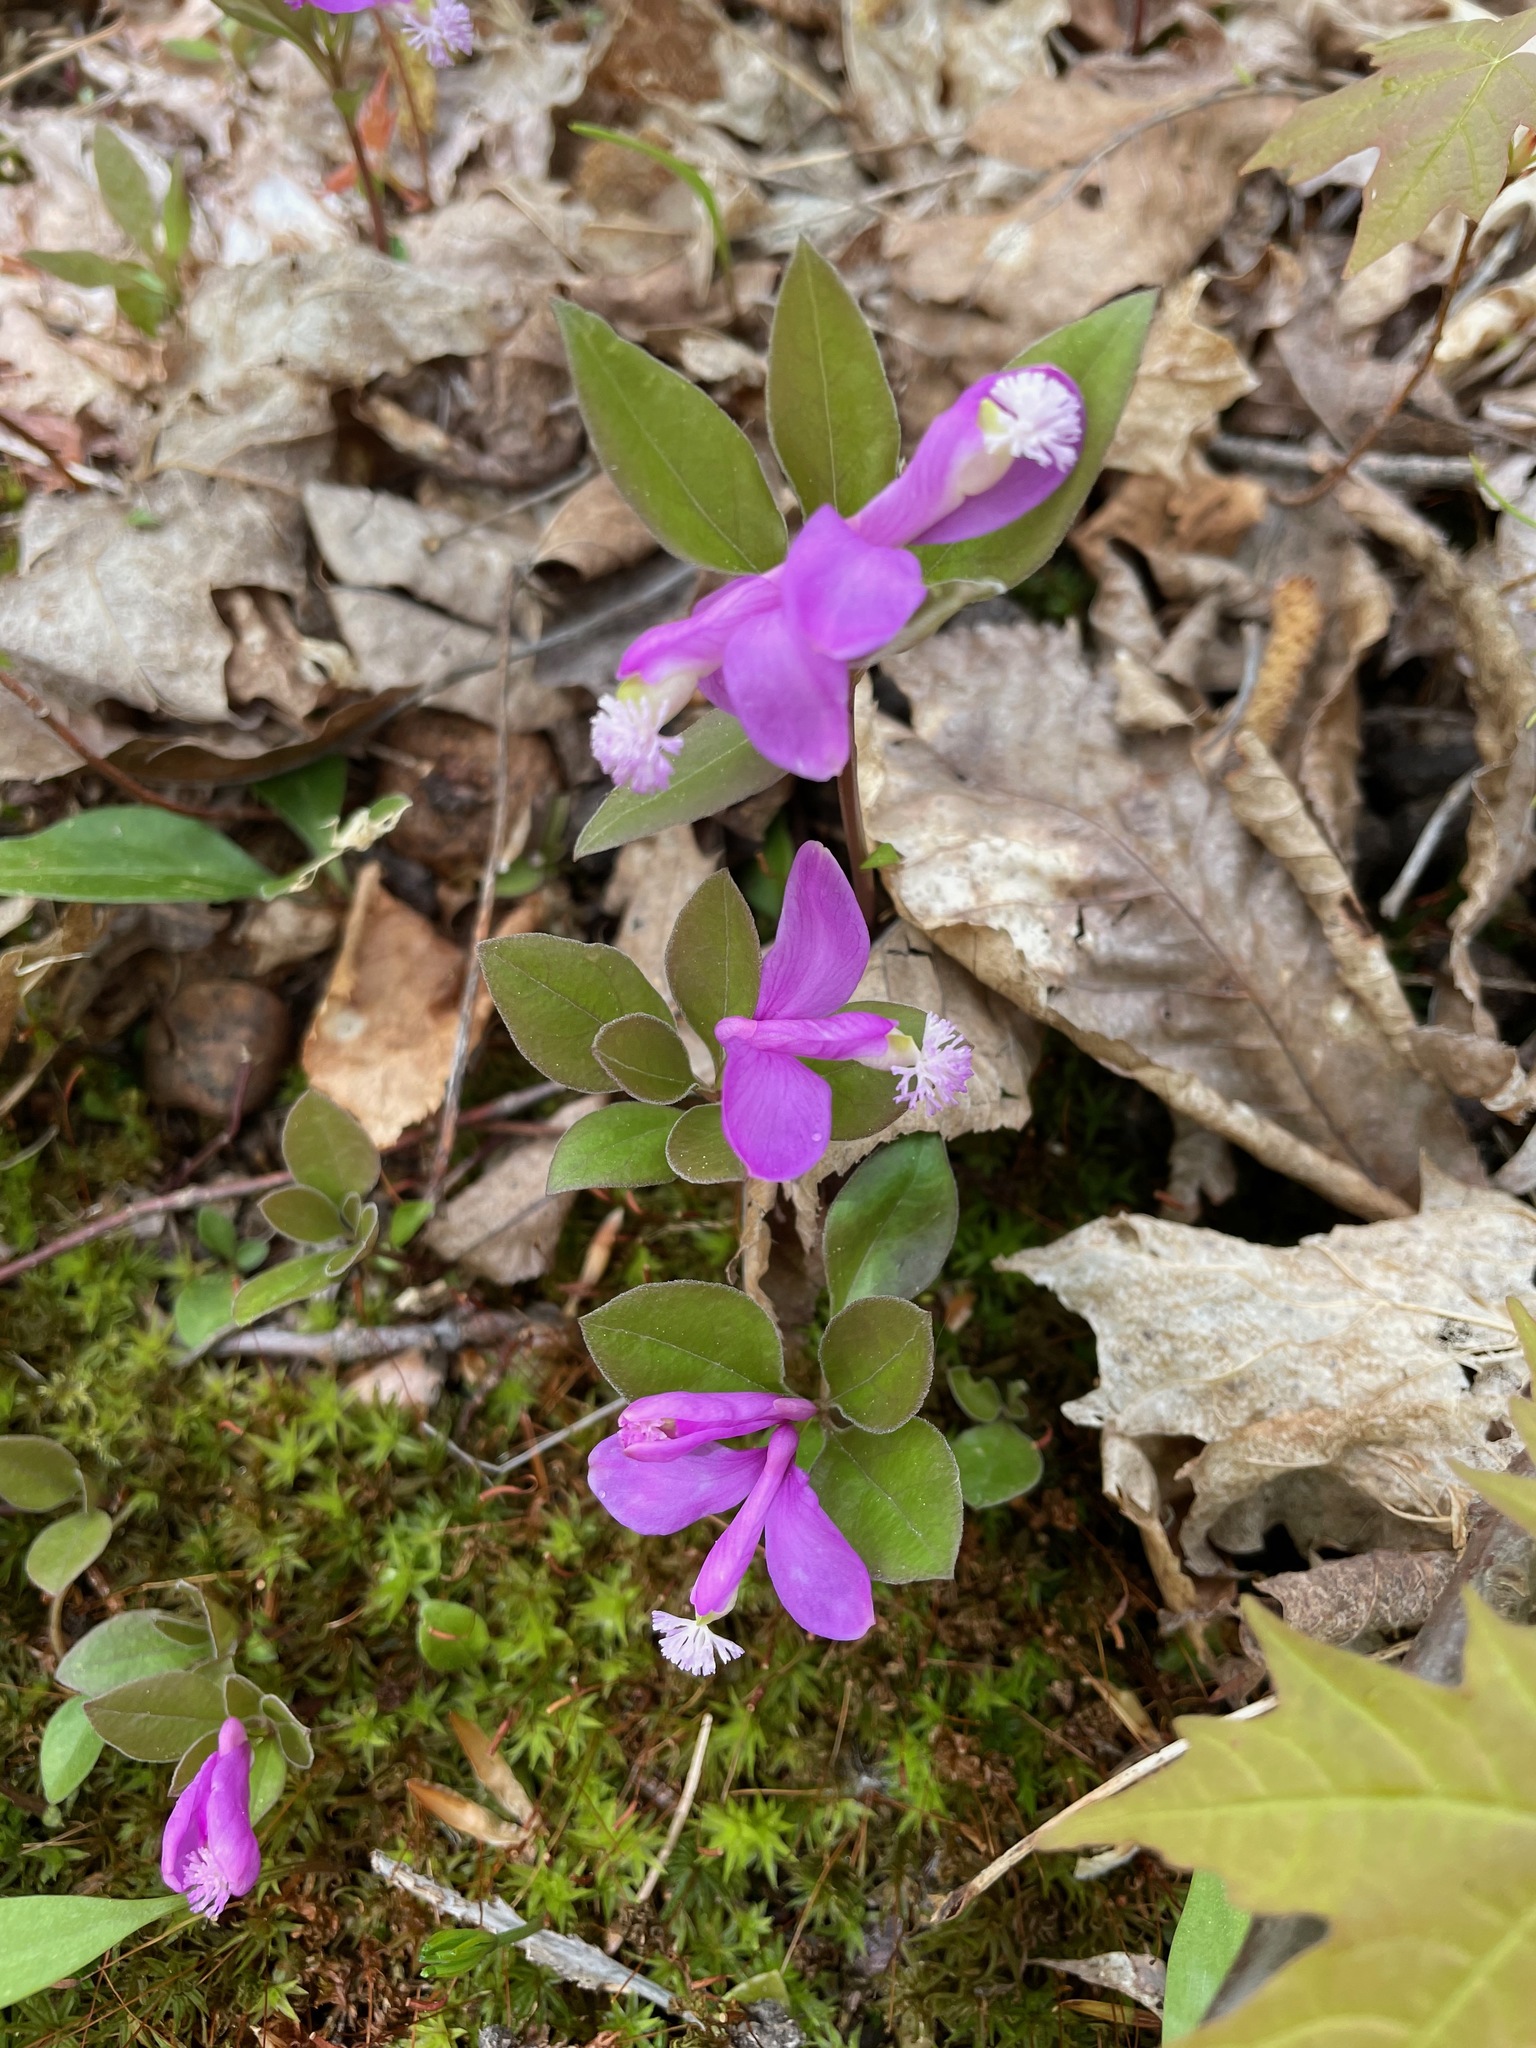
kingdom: Plantae
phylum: Tracheophyta
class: Magnoliopsida
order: Fabales
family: Polygalaceae
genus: Polygaloides
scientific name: Polygaloides paucifolia
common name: Bird-on-the-wing
